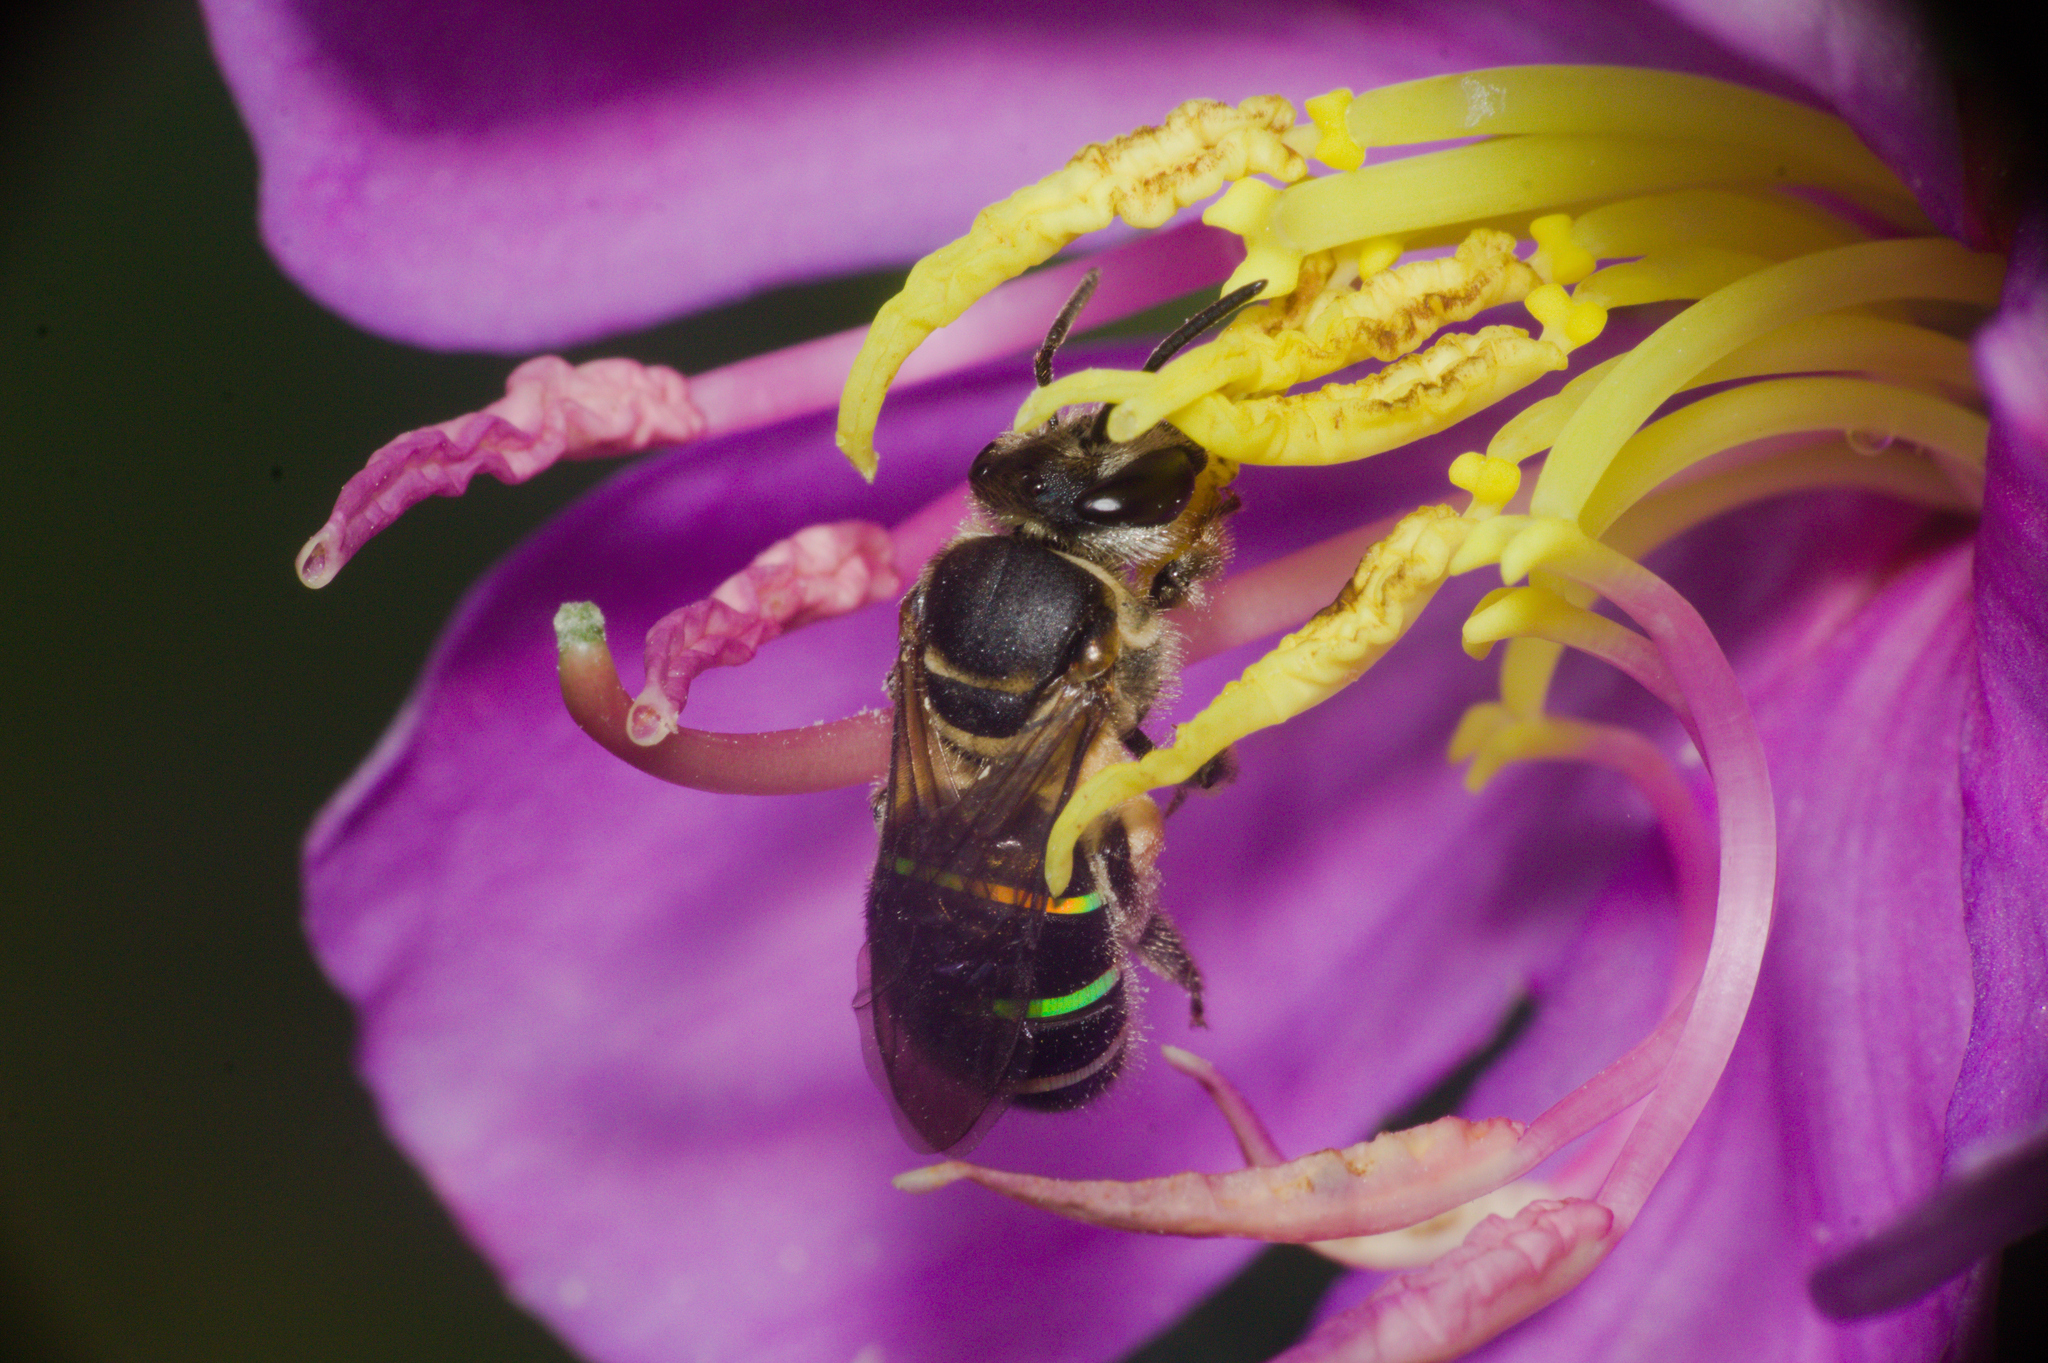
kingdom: Animalia
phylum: Arthropoda
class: Insecta
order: Hymenoptera
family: Halictidae
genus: Nomia
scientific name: Nomia strigata
